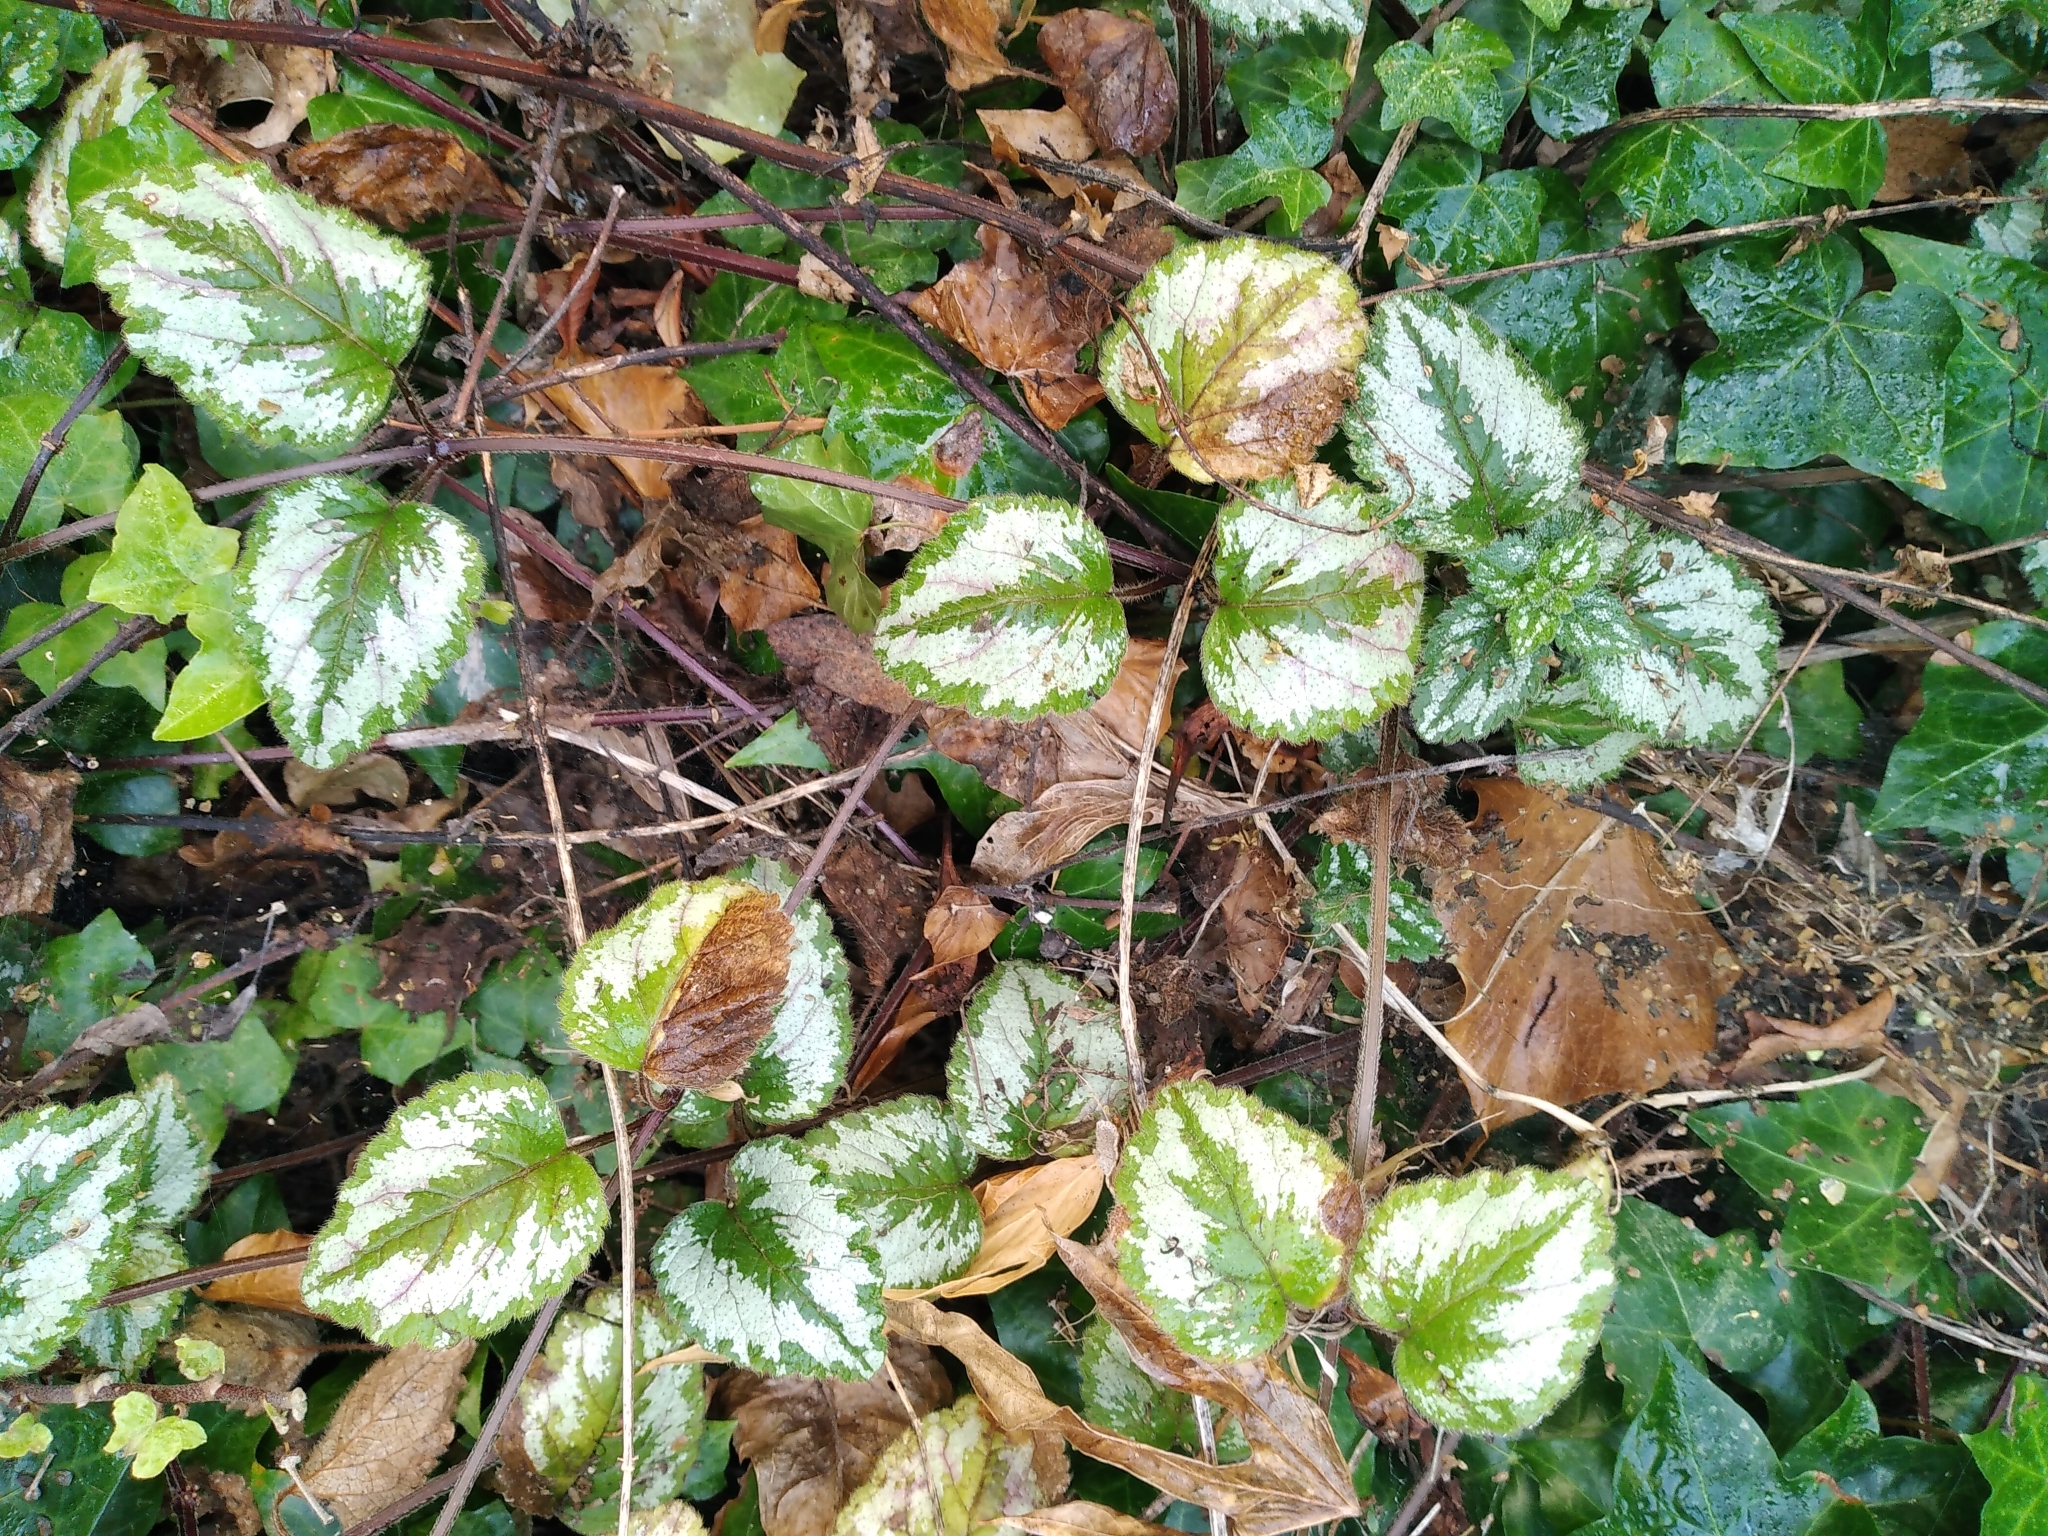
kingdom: Plantae
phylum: Tracheophyta
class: Magnoliopsida
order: Lamiales
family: Lamiaceae
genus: Lamium
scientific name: Lamium galeobdolon
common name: Yellow archangel
